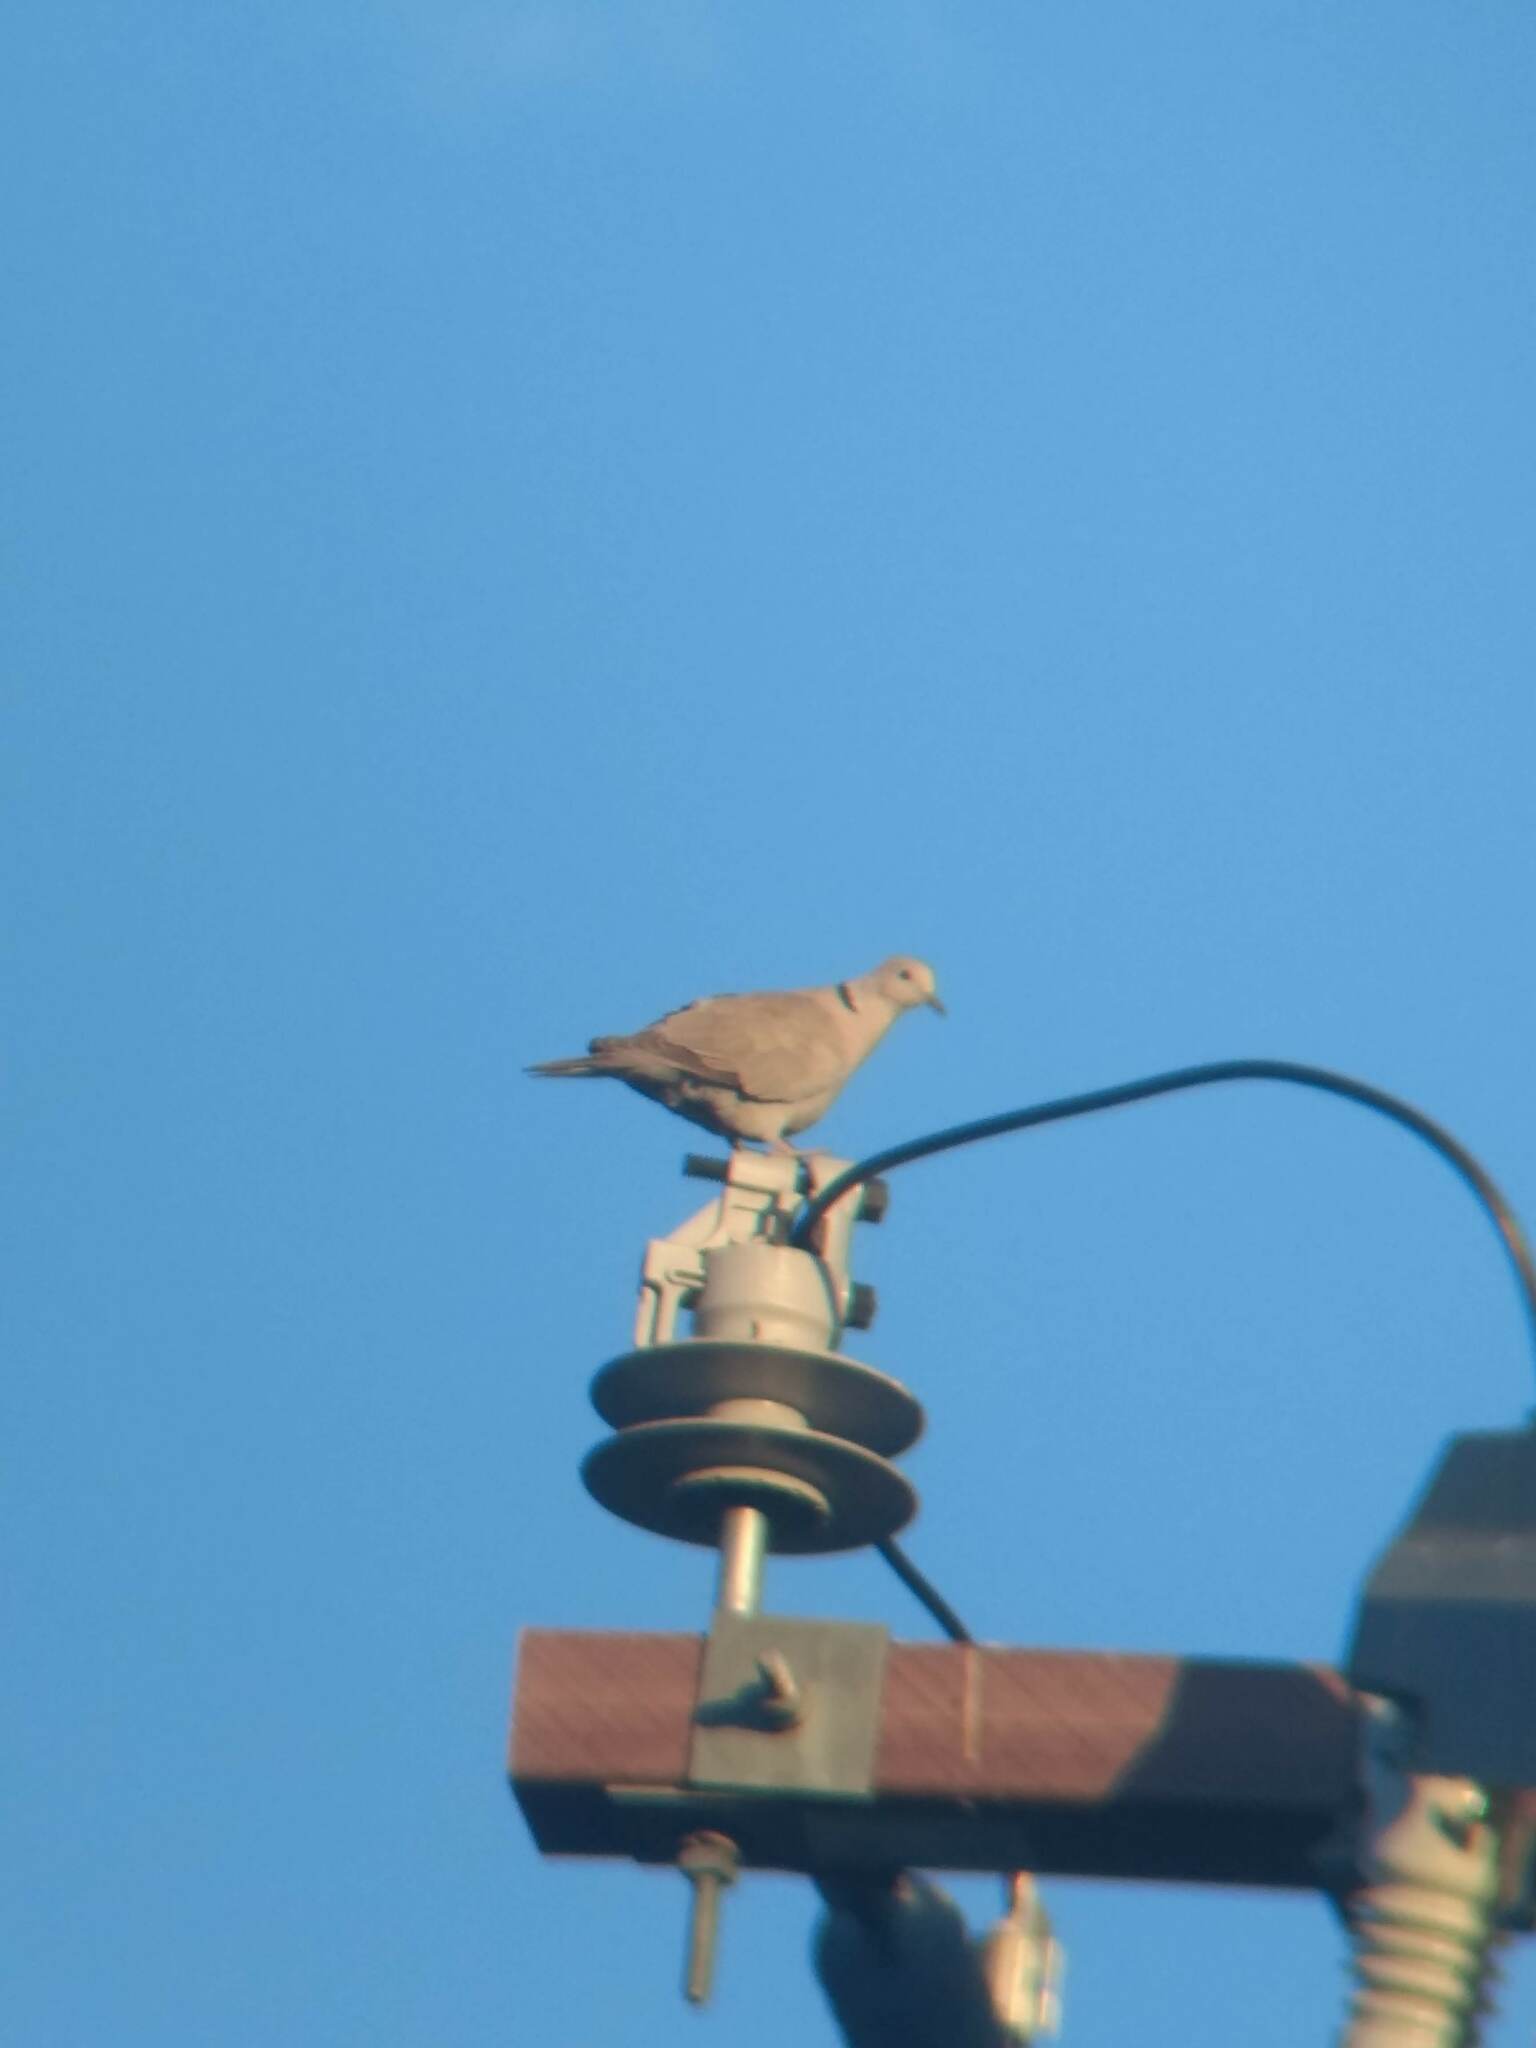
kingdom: Animalia
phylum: Chordata
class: Aves
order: Columbiformes
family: Columbidae
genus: Streptopelia
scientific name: Streptopelia decaocto
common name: Eurasian collared dove
